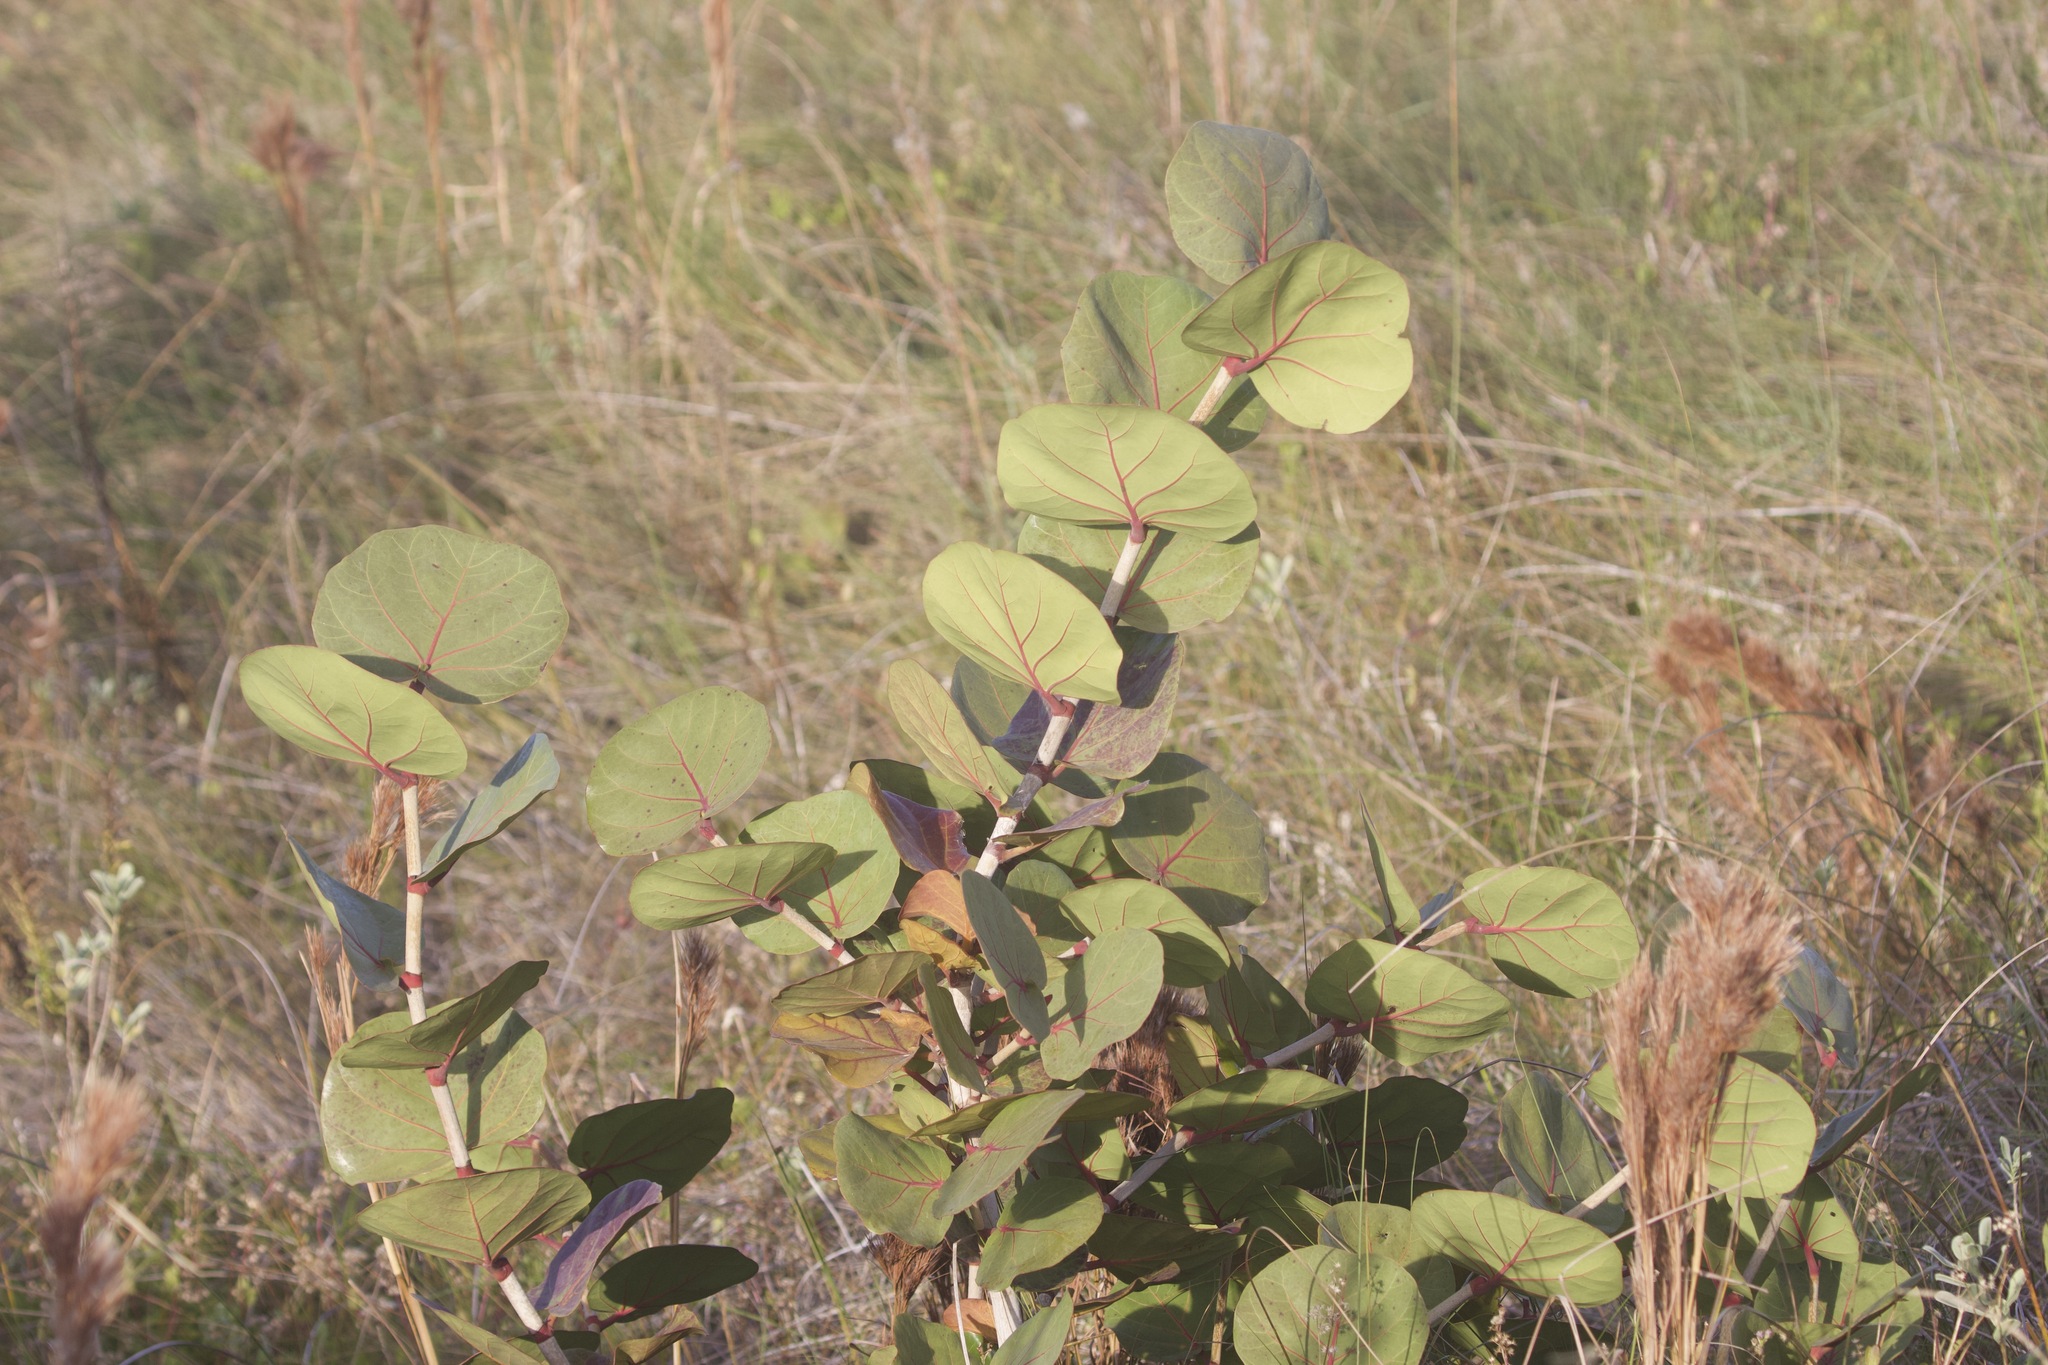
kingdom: Plantae
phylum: Tracheophyta
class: Magnoliopsida
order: Caryophyllales
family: Polygonaceae
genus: Coccoloba
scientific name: Coccoloba uvifera
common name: Seagrape
